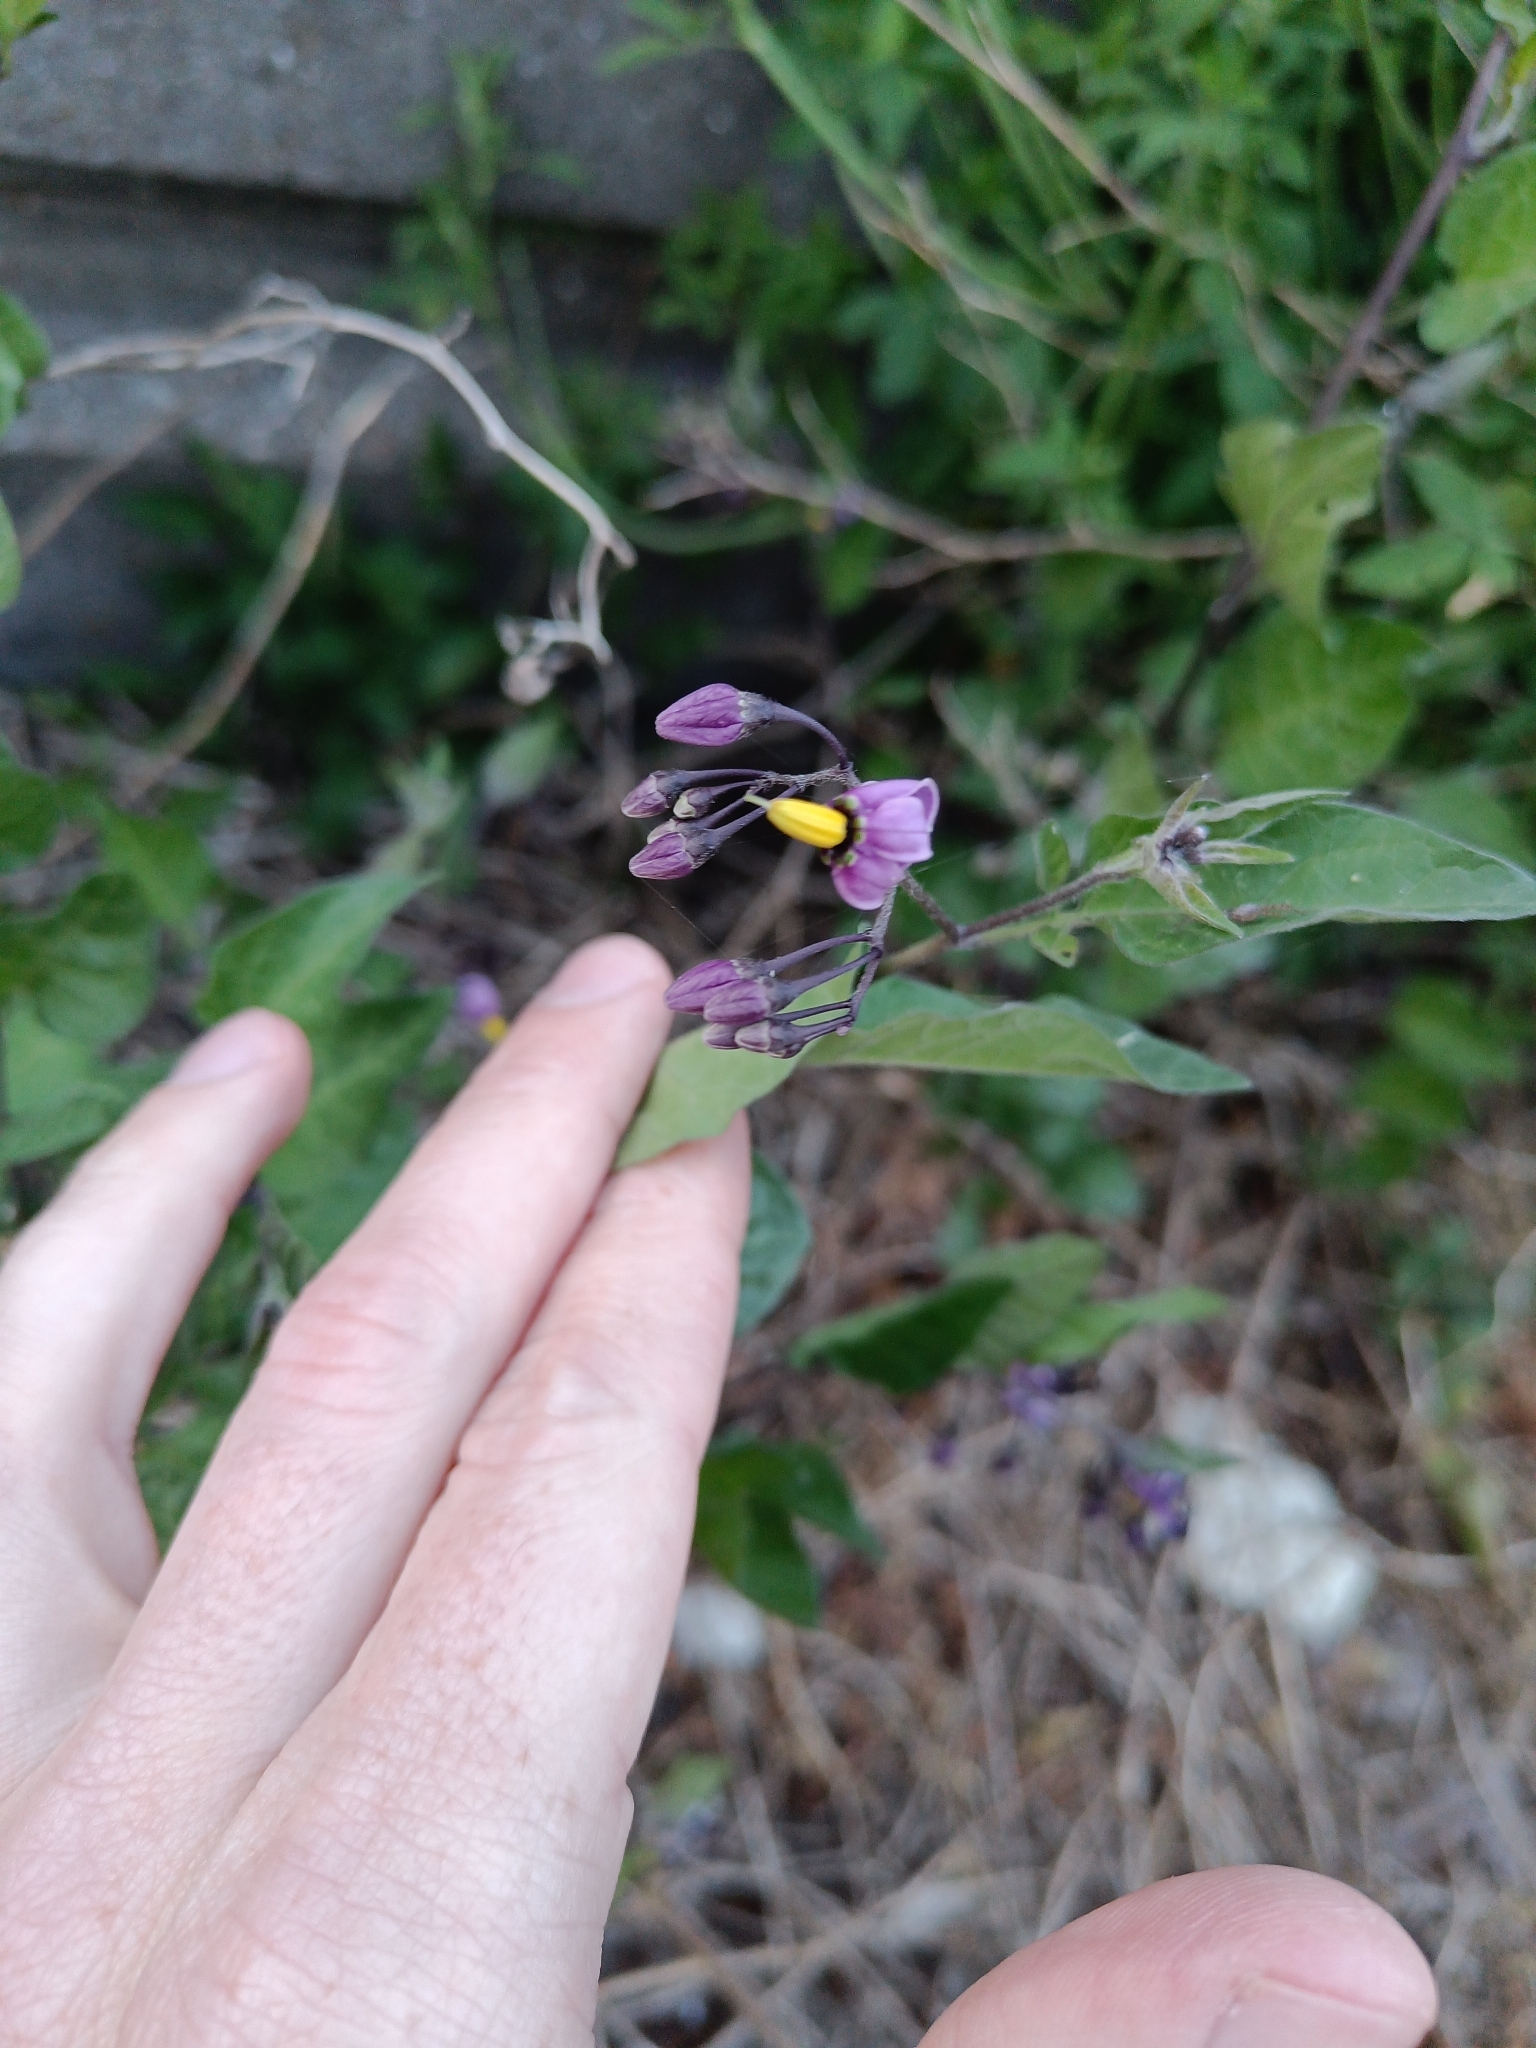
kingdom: Plantae
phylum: Tracheophyta
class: Magnoliopsida
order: Solanales
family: Solanaceae
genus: Solanum
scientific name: Solanum dulcamara
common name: Climbing nightshade
